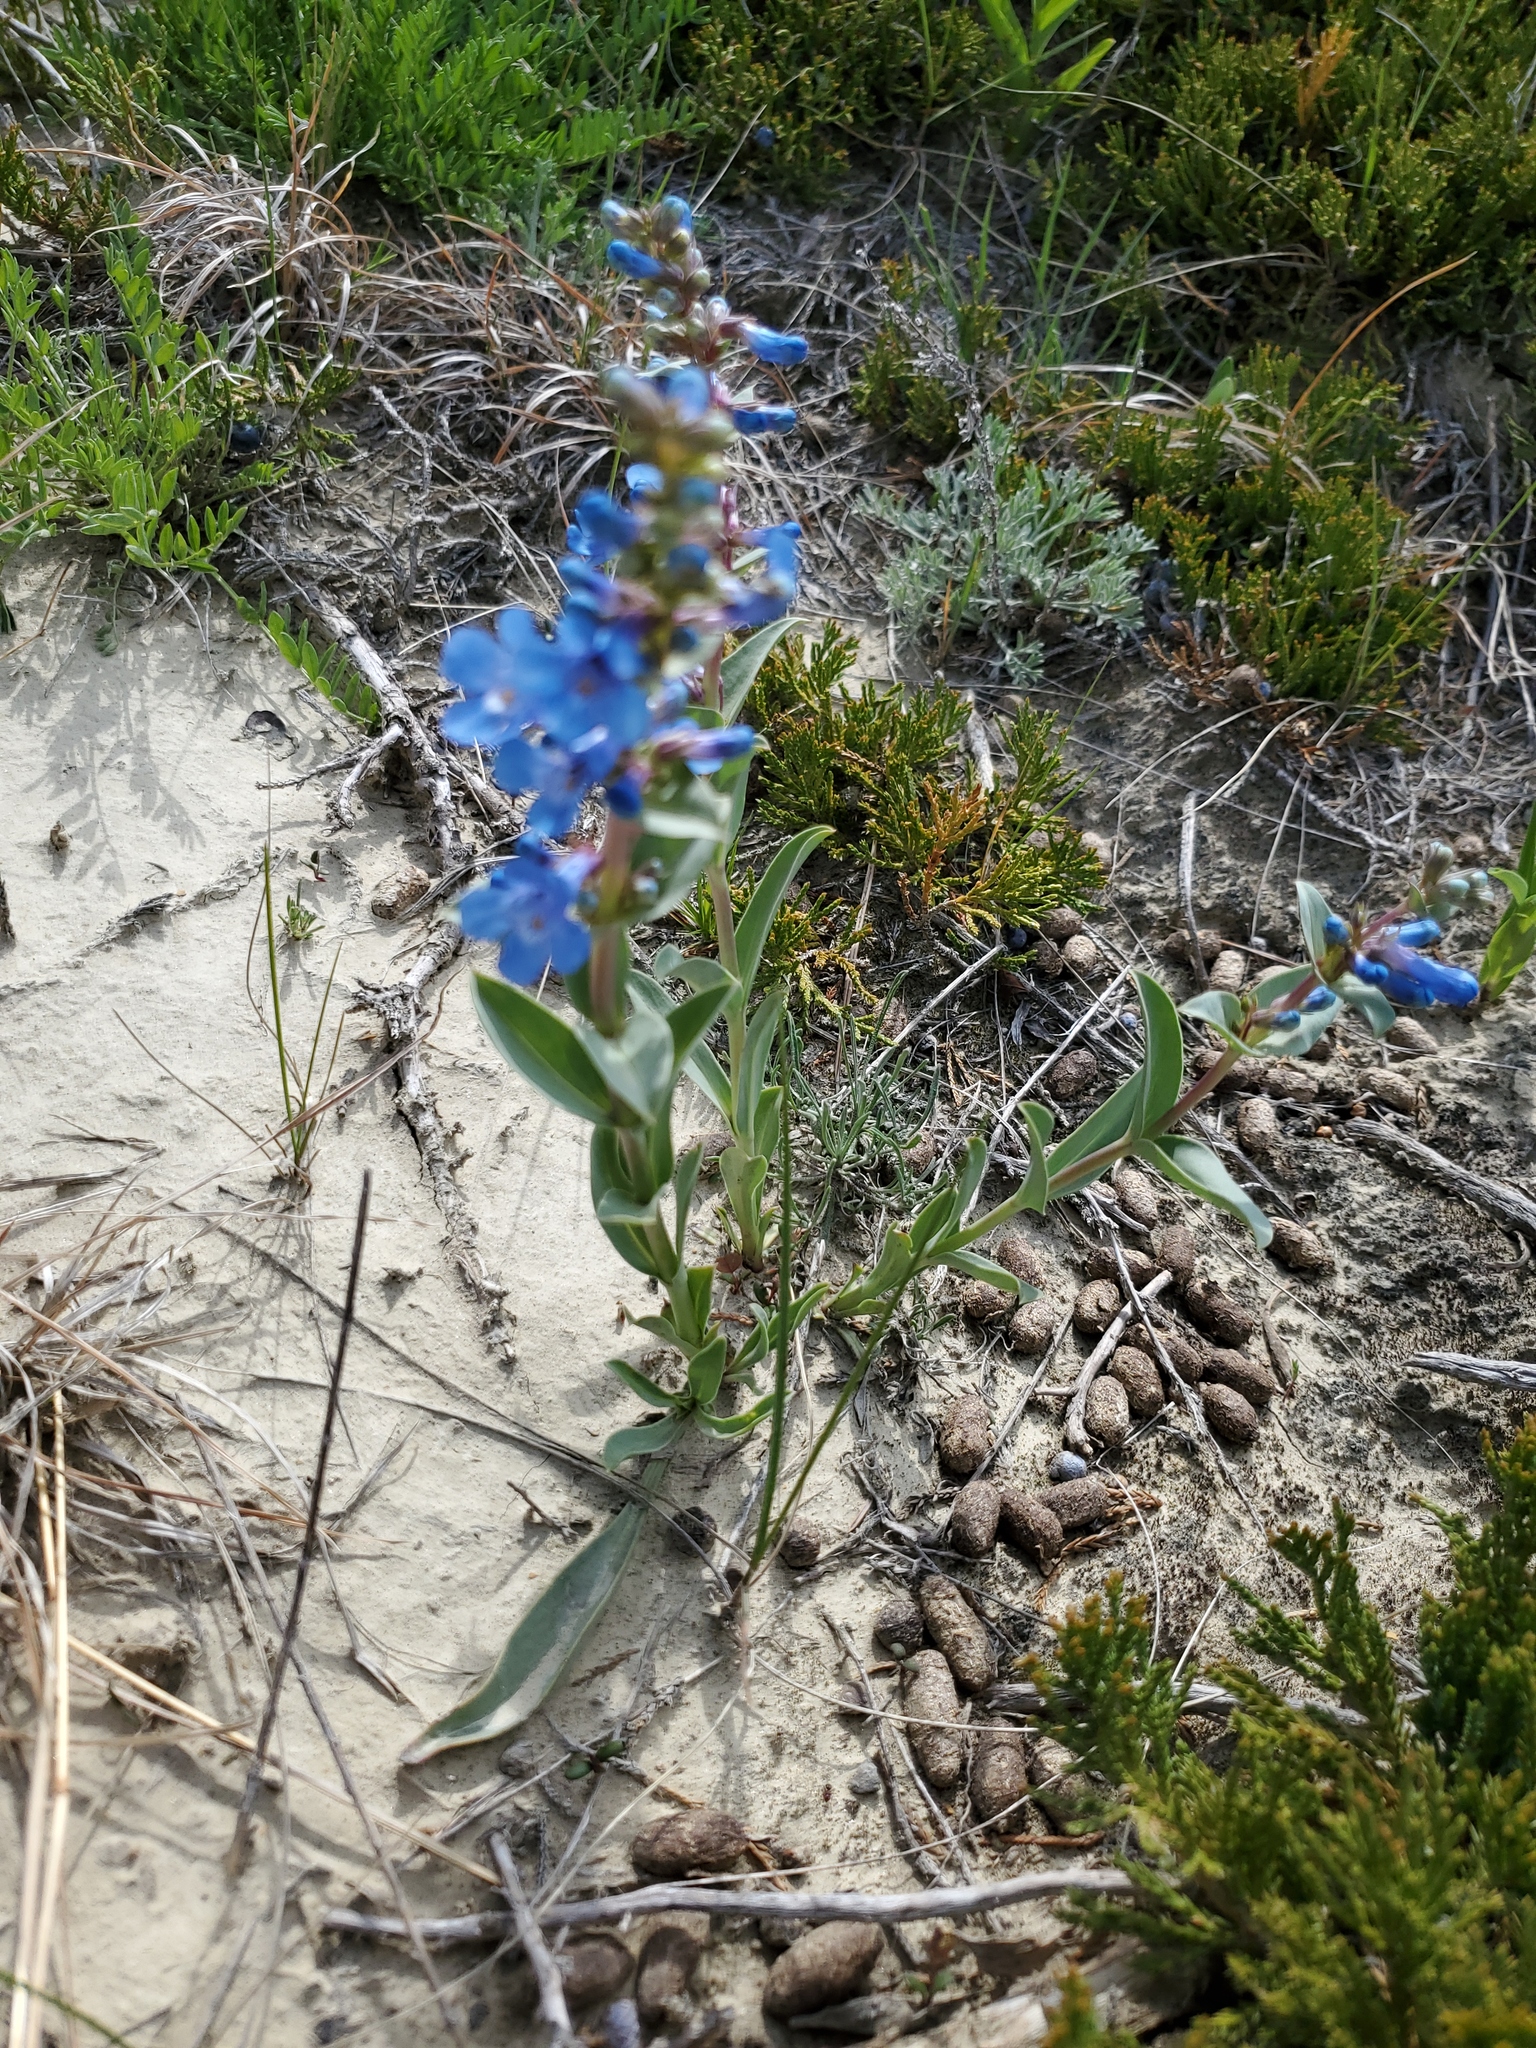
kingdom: Plantae
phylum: Tracheophyta
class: Magnoliopsida
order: Lamiales
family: Plantaginaceae
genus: Penstemon
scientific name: Penstemon nitidus
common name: Shining penstemon
